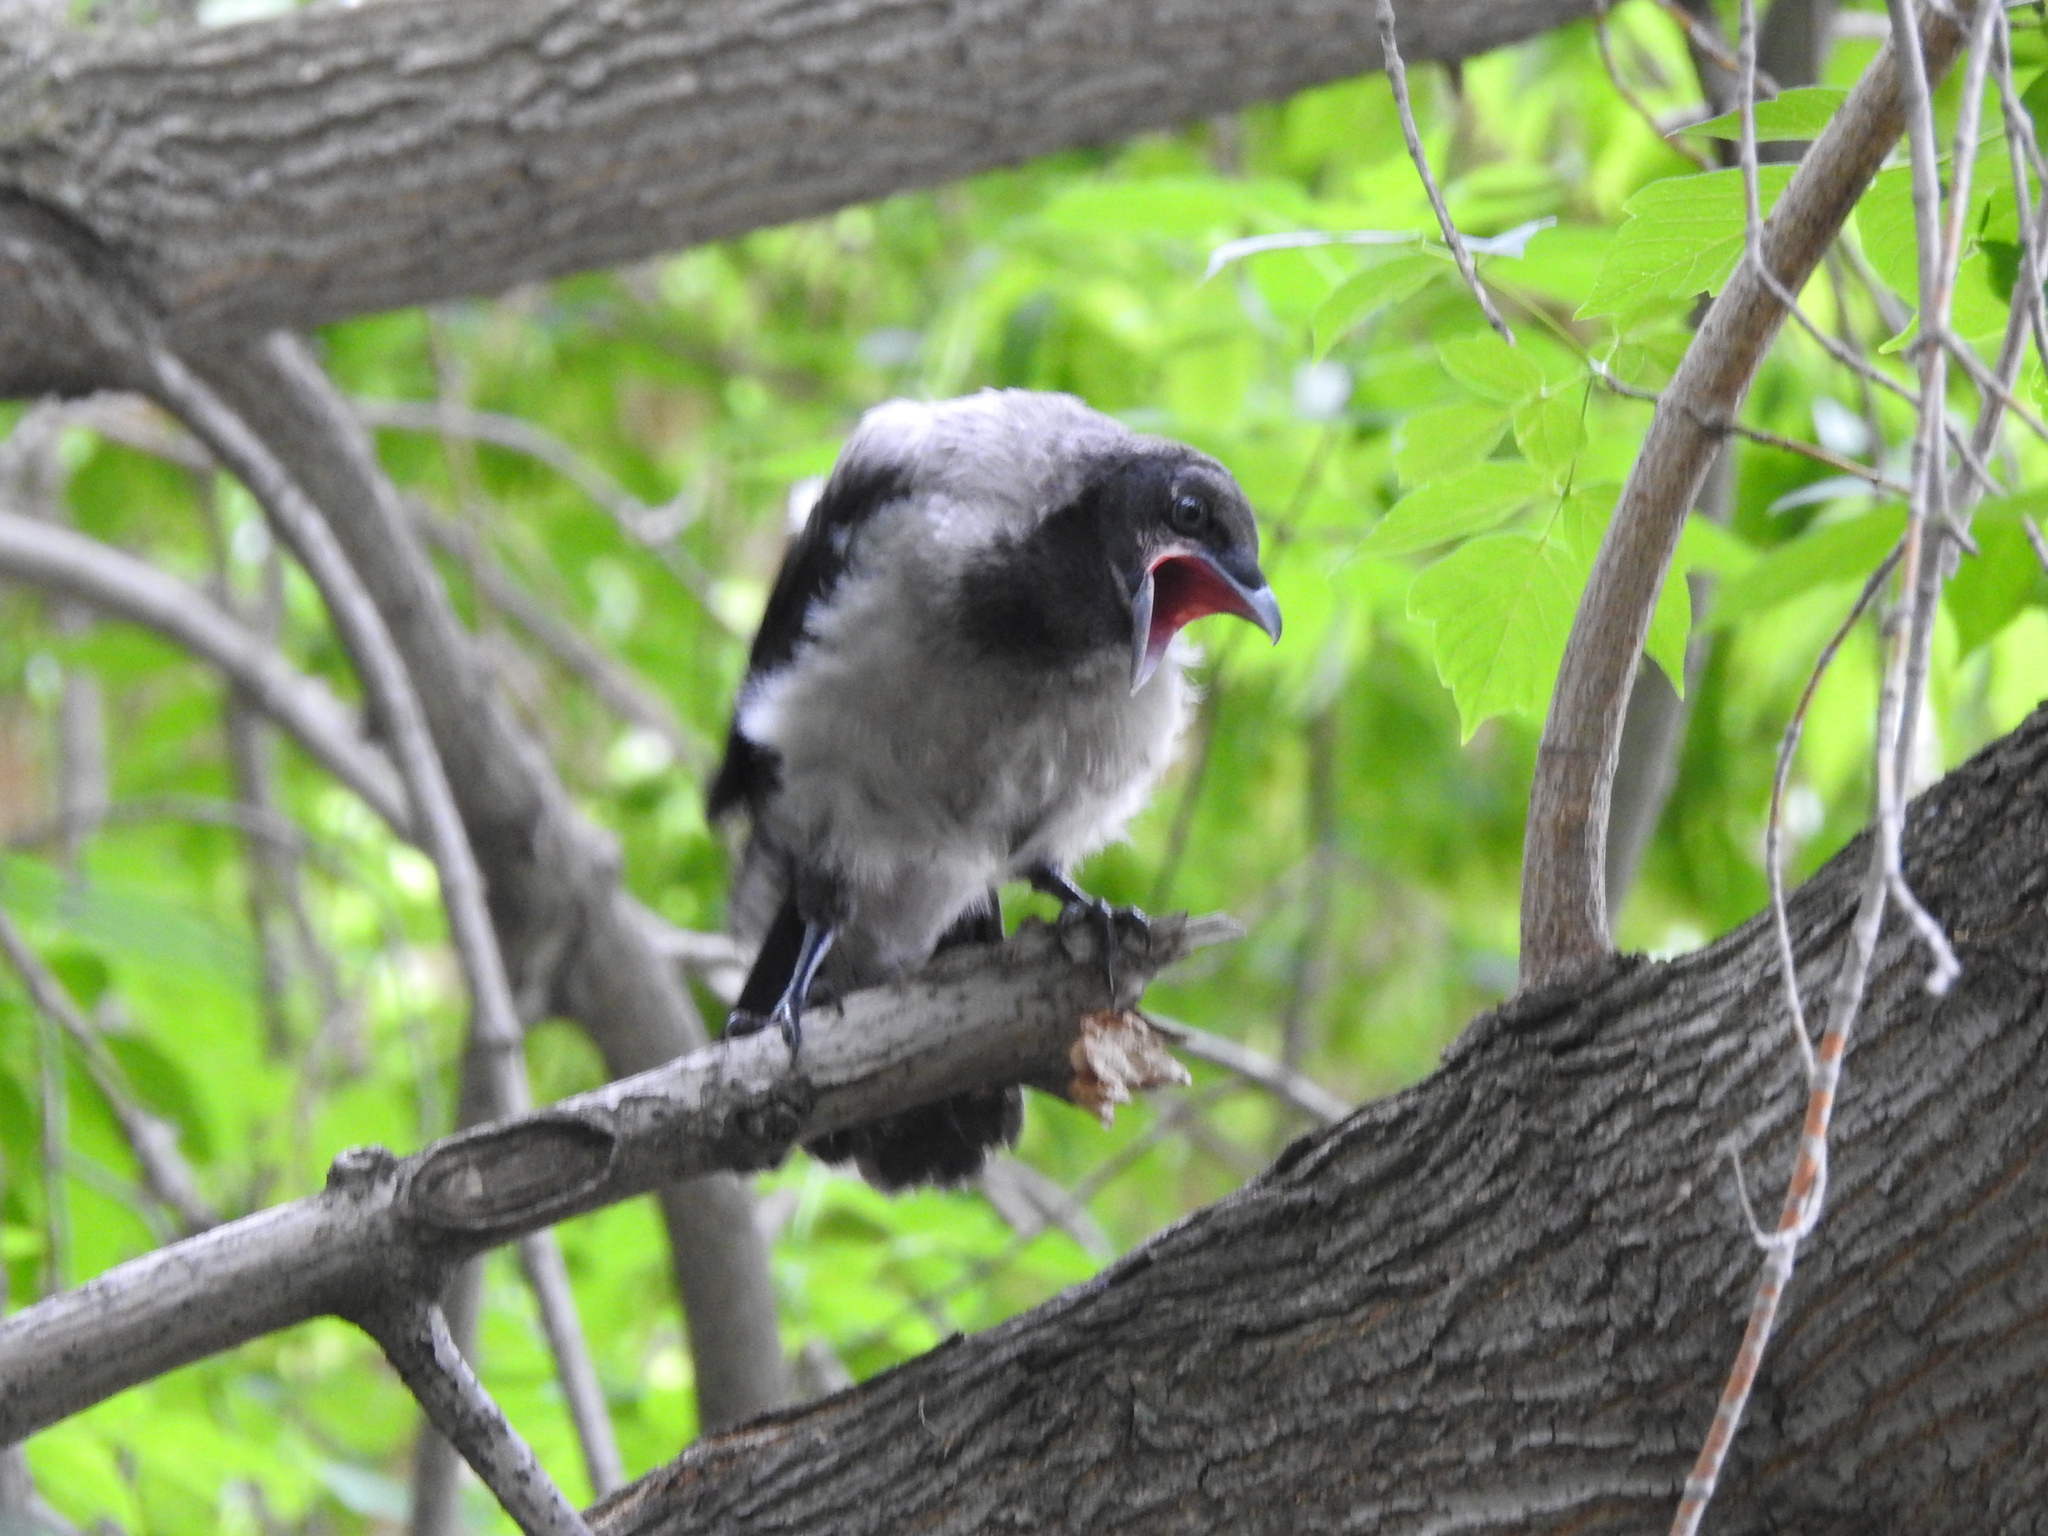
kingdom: Animalia
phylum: Chordata
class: Aves
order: Passeriformes
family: Corvidae
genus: Corvus
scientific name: Corvus cornix
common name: Hooded crow
